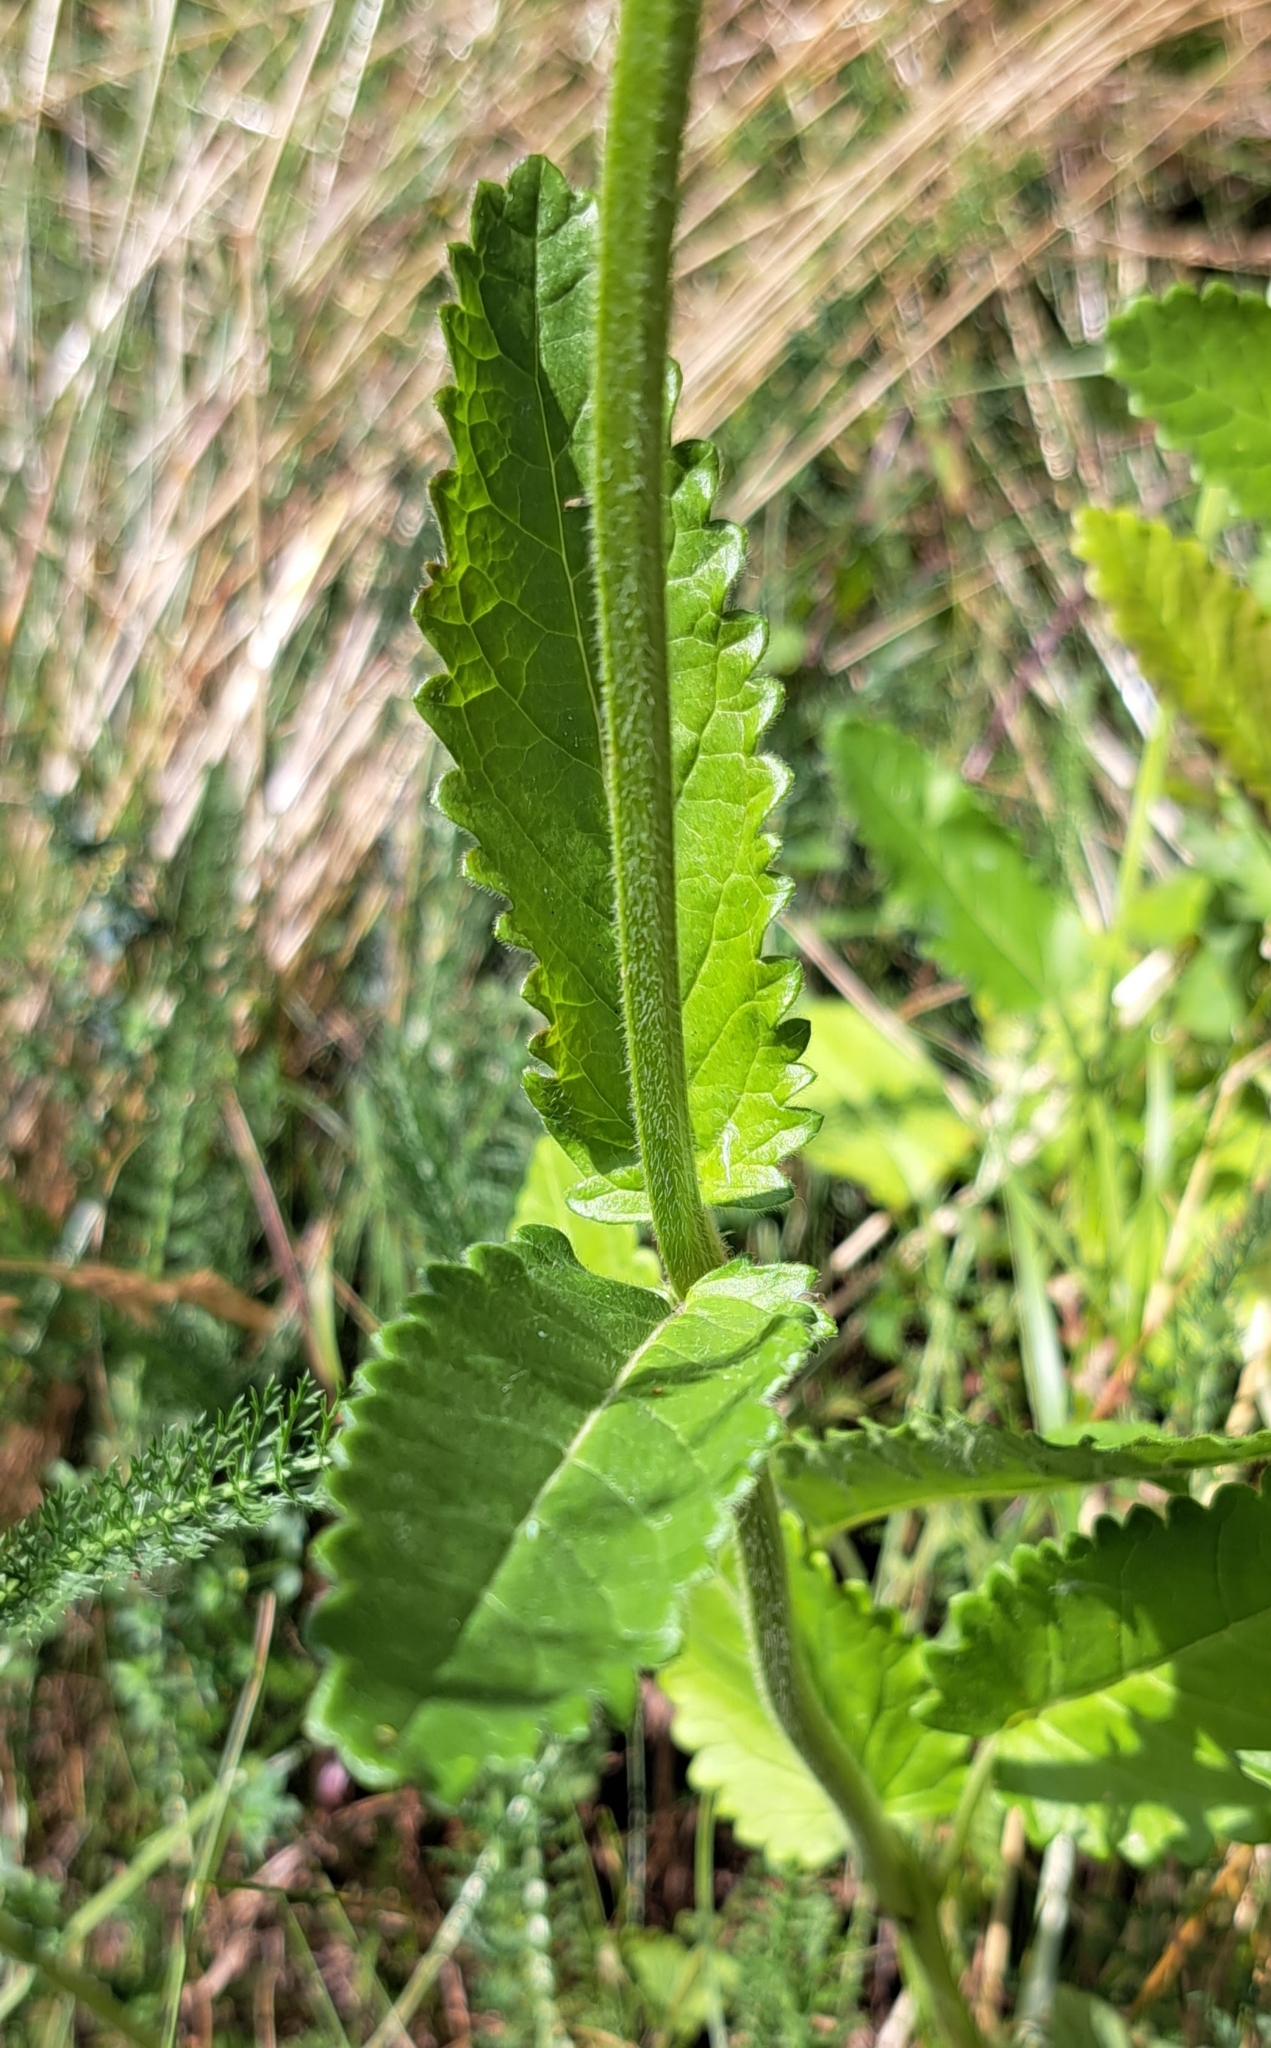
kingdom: Plantae
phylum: Tracheophyta
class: Magnoliopsida
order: Lamiales
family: Lamiaceae
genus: Betonica
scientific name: Betonica officinalis
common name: Bishop's-wort
